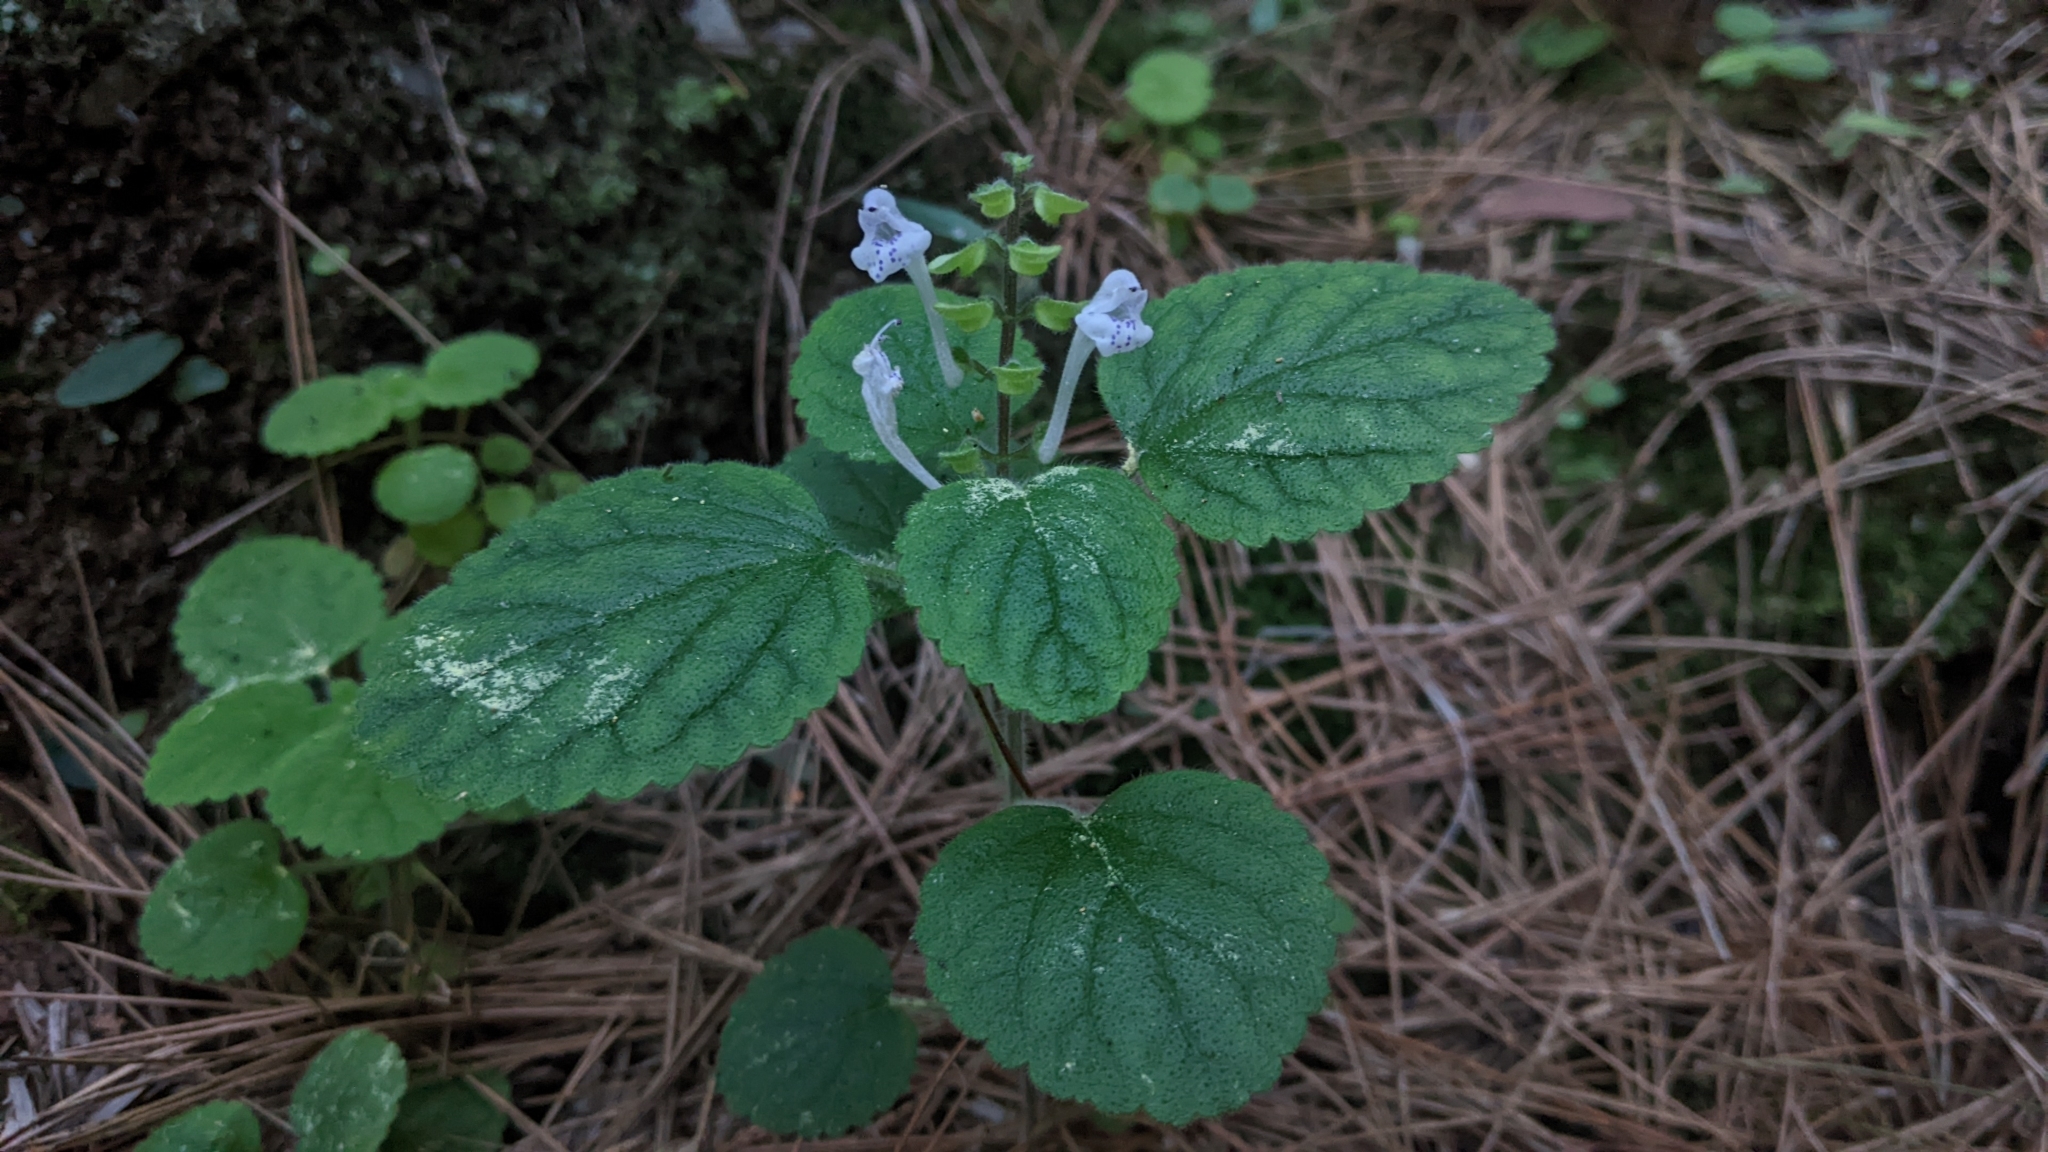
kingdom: Plantae
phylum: Tracheophyta
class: Magnoliopsida
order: Lamiales
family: Lamiaceae
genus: Scutellaria
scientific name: Scutellaria indica
